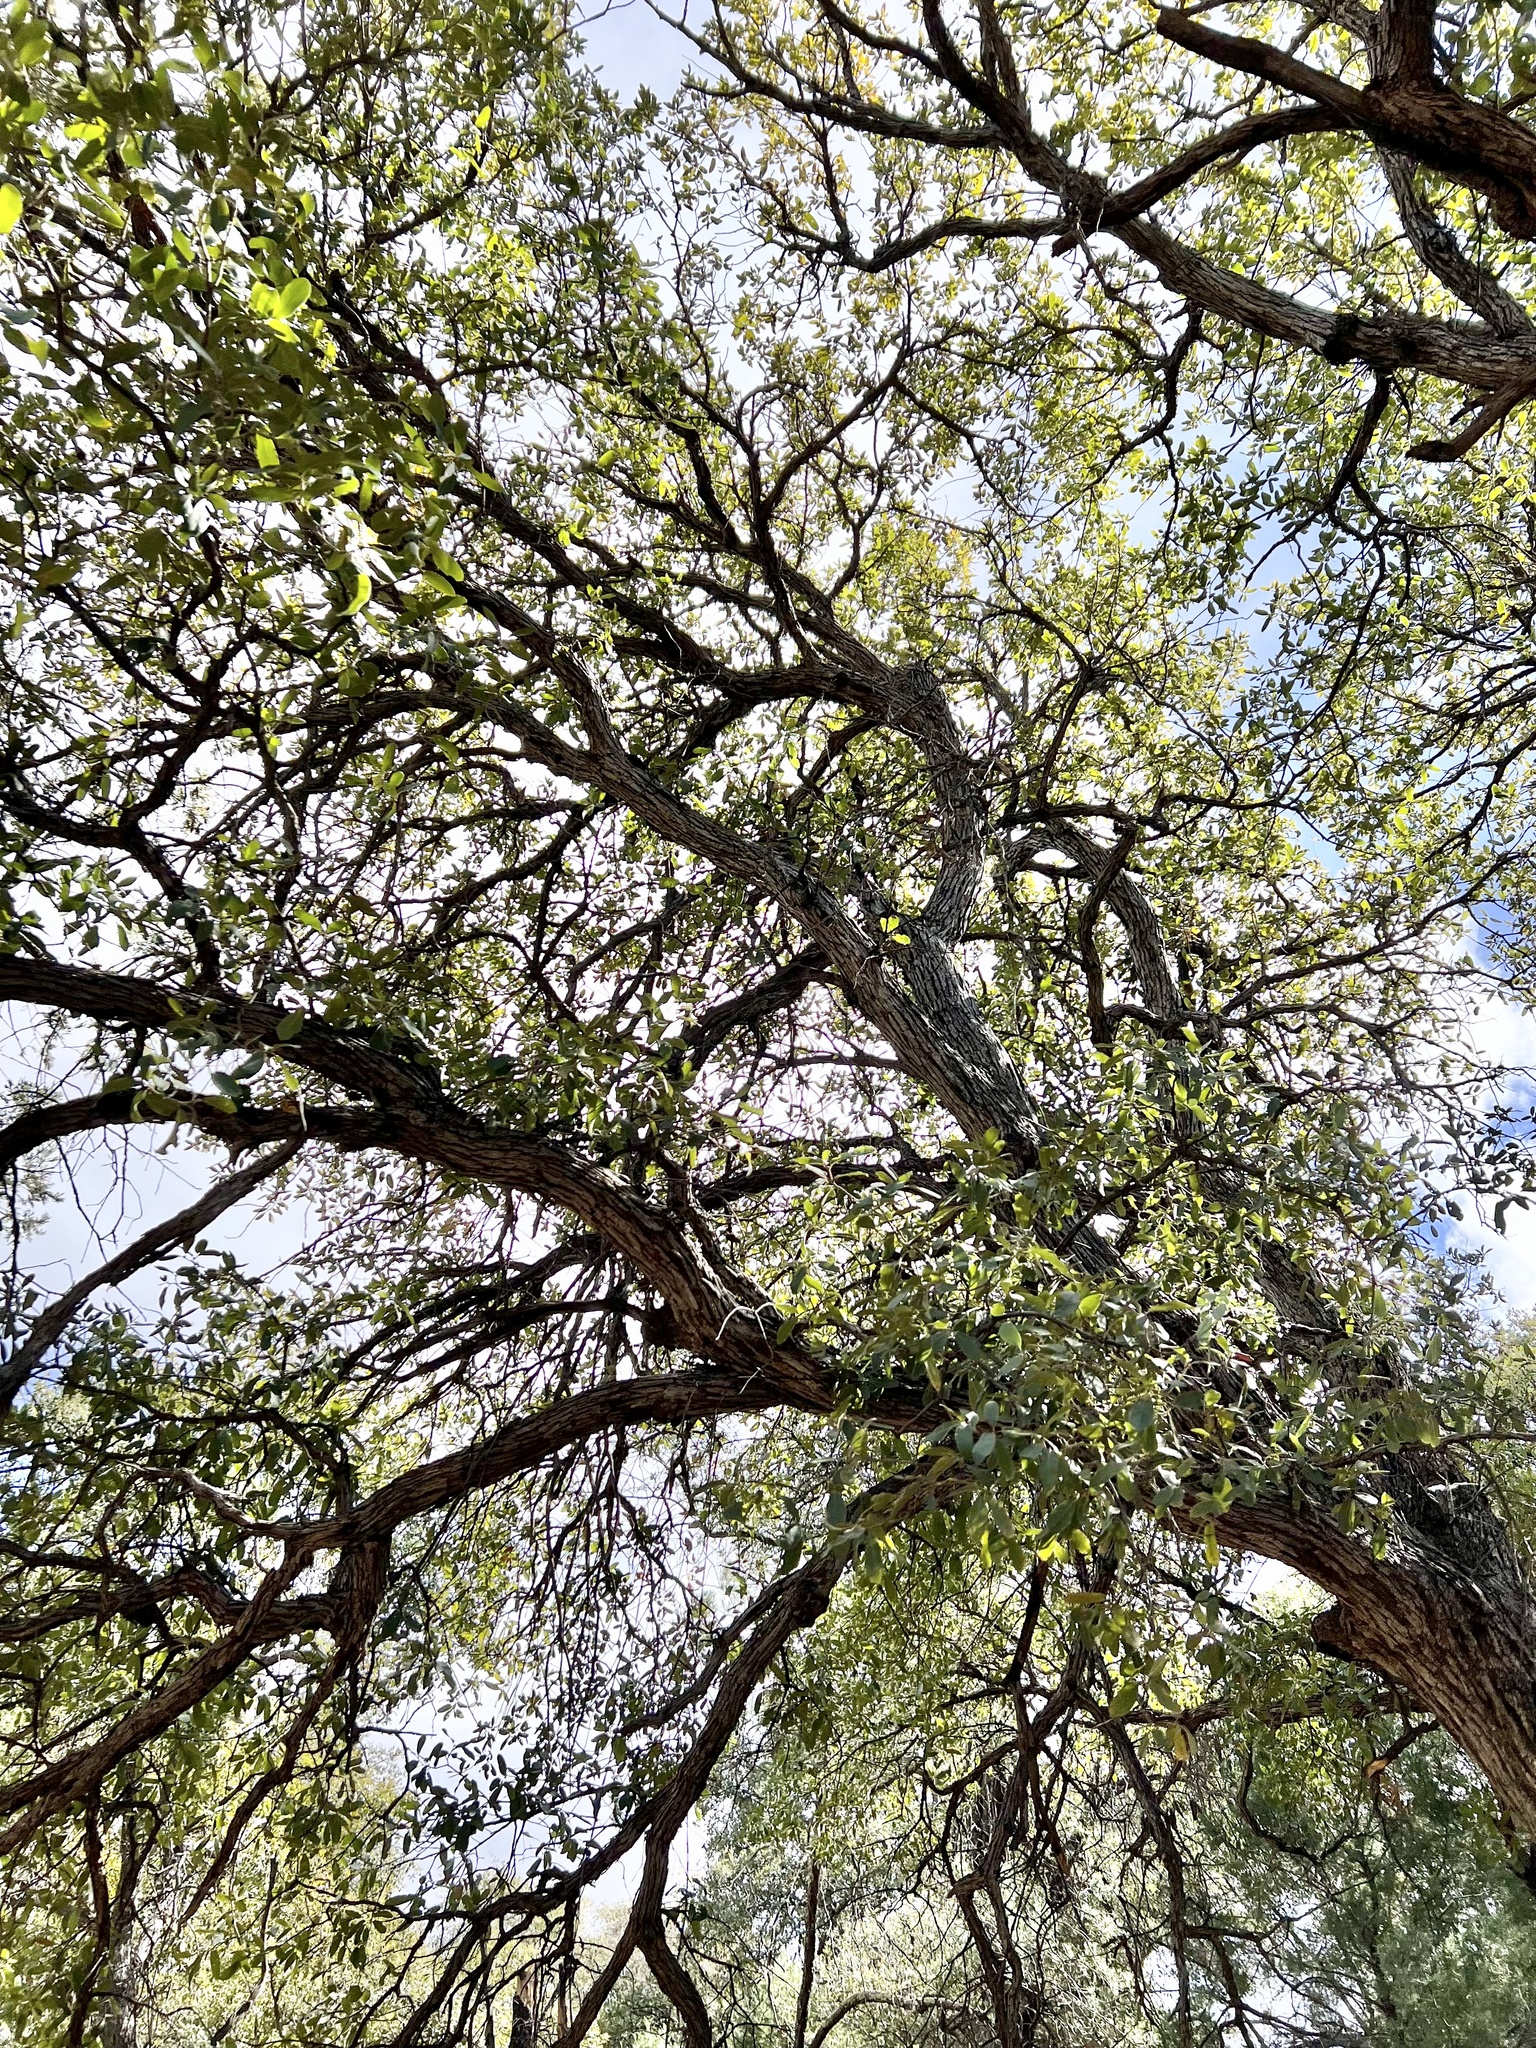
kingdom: Plantae
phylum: Tracheophyta
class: Magnoliopsida
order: Fagales
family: Fagaceae
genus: Quercus
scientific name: Quercus arizonica
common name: Arizona white oak
